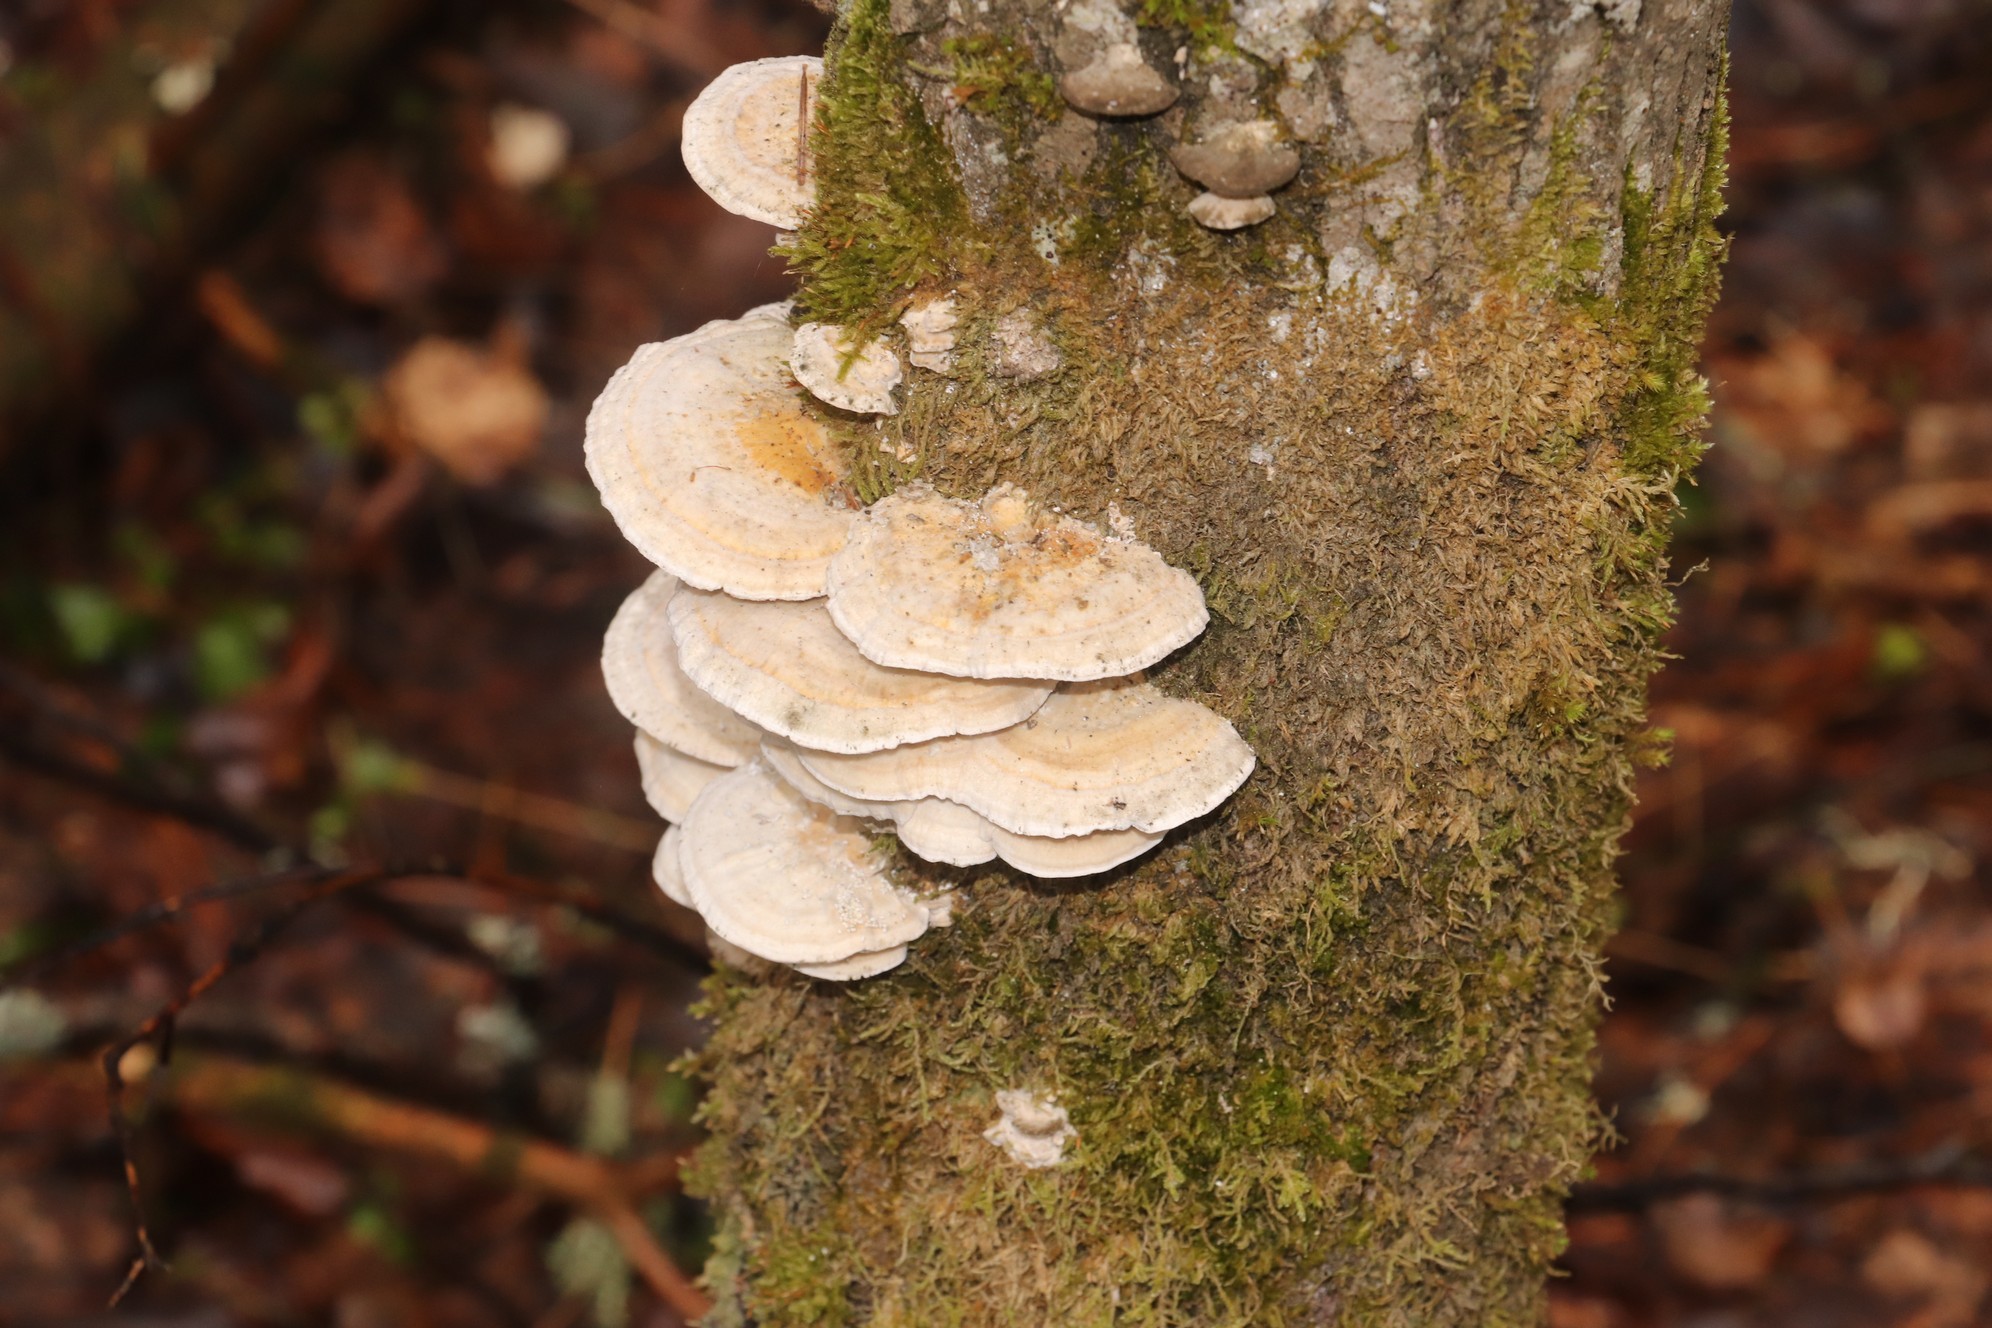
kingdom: Fungi
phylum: Basidiomycota
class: Agaricomycetes
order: Polyporales
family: Polyporaceae
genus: Trametes
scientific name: Trametes ochracea
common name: Ochre bracket
